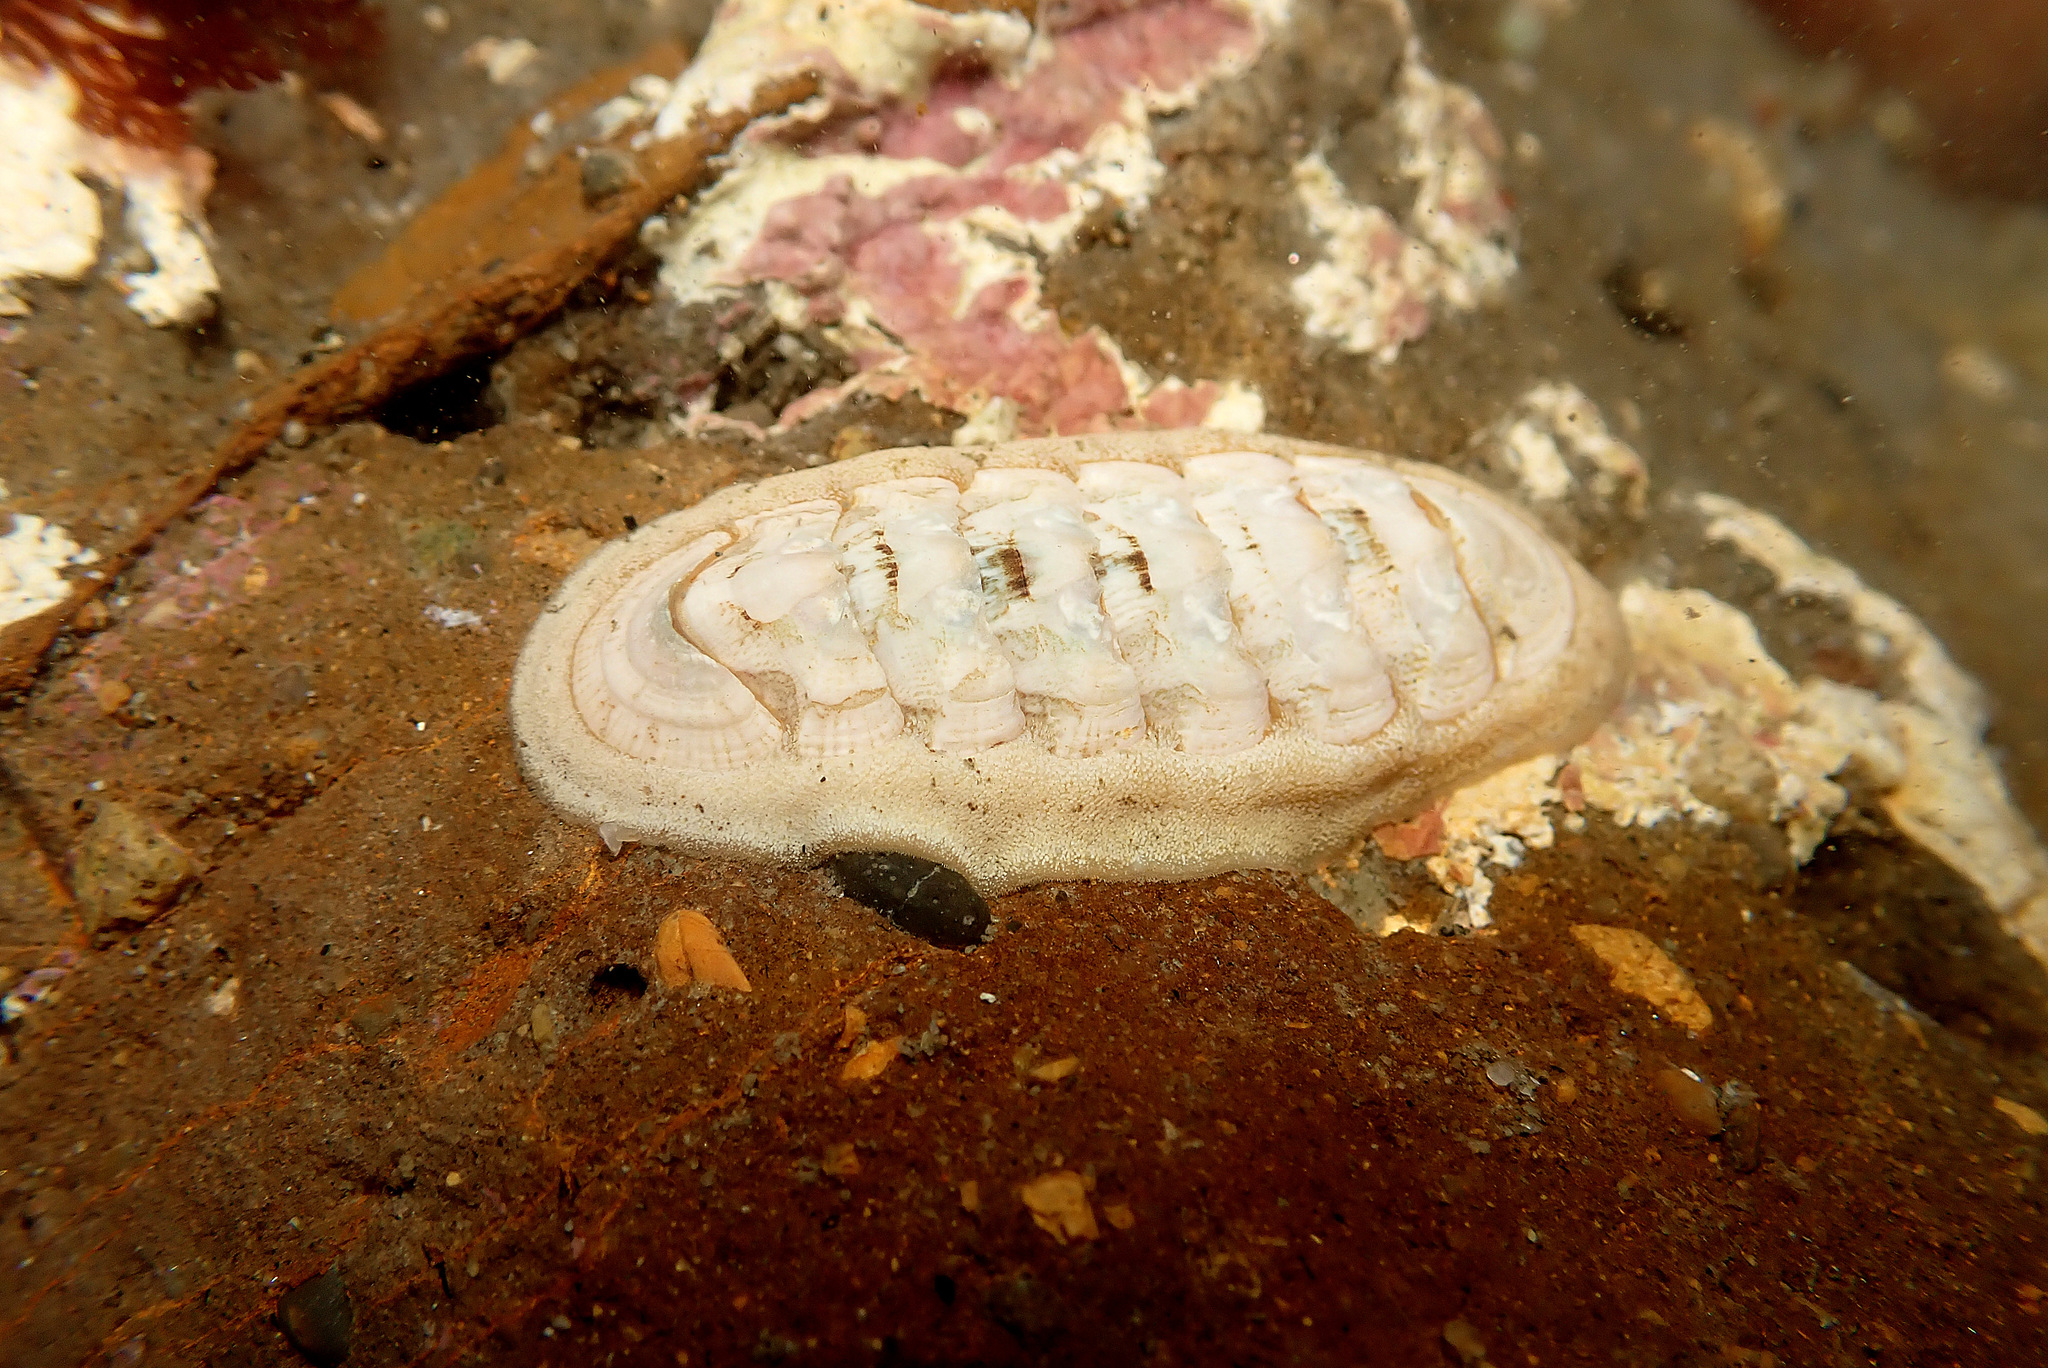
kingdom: Animalia
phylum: Mollusca
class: Polyplacophora
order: Chitonida
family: Ischnochitonidae
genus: Stenoplax
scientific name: Stenoplax heathiana
